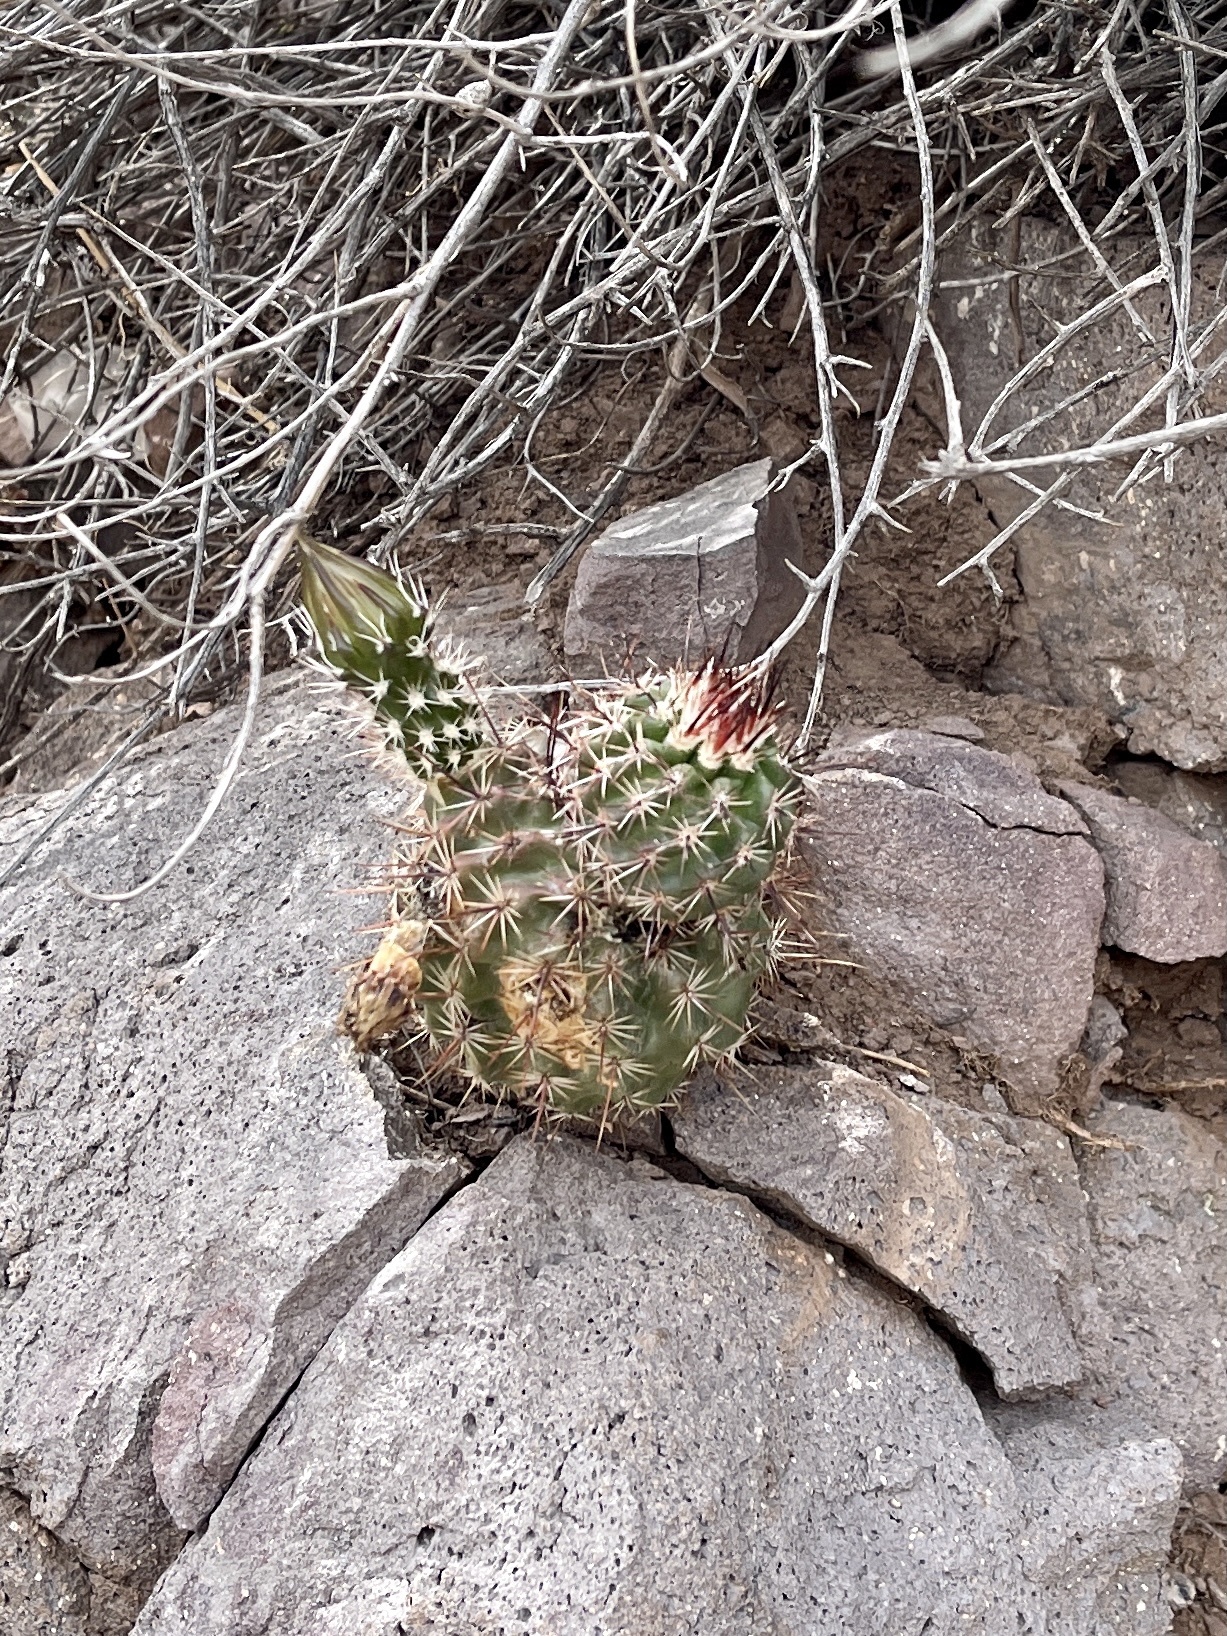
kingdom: Plantae
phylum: Tracheophyta
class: Magnoliopsida
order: Caryophyllales
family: Cactaceae
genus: Echinocereus
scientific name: Echinocereus fasciculatus
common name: Bundle hedgehog
